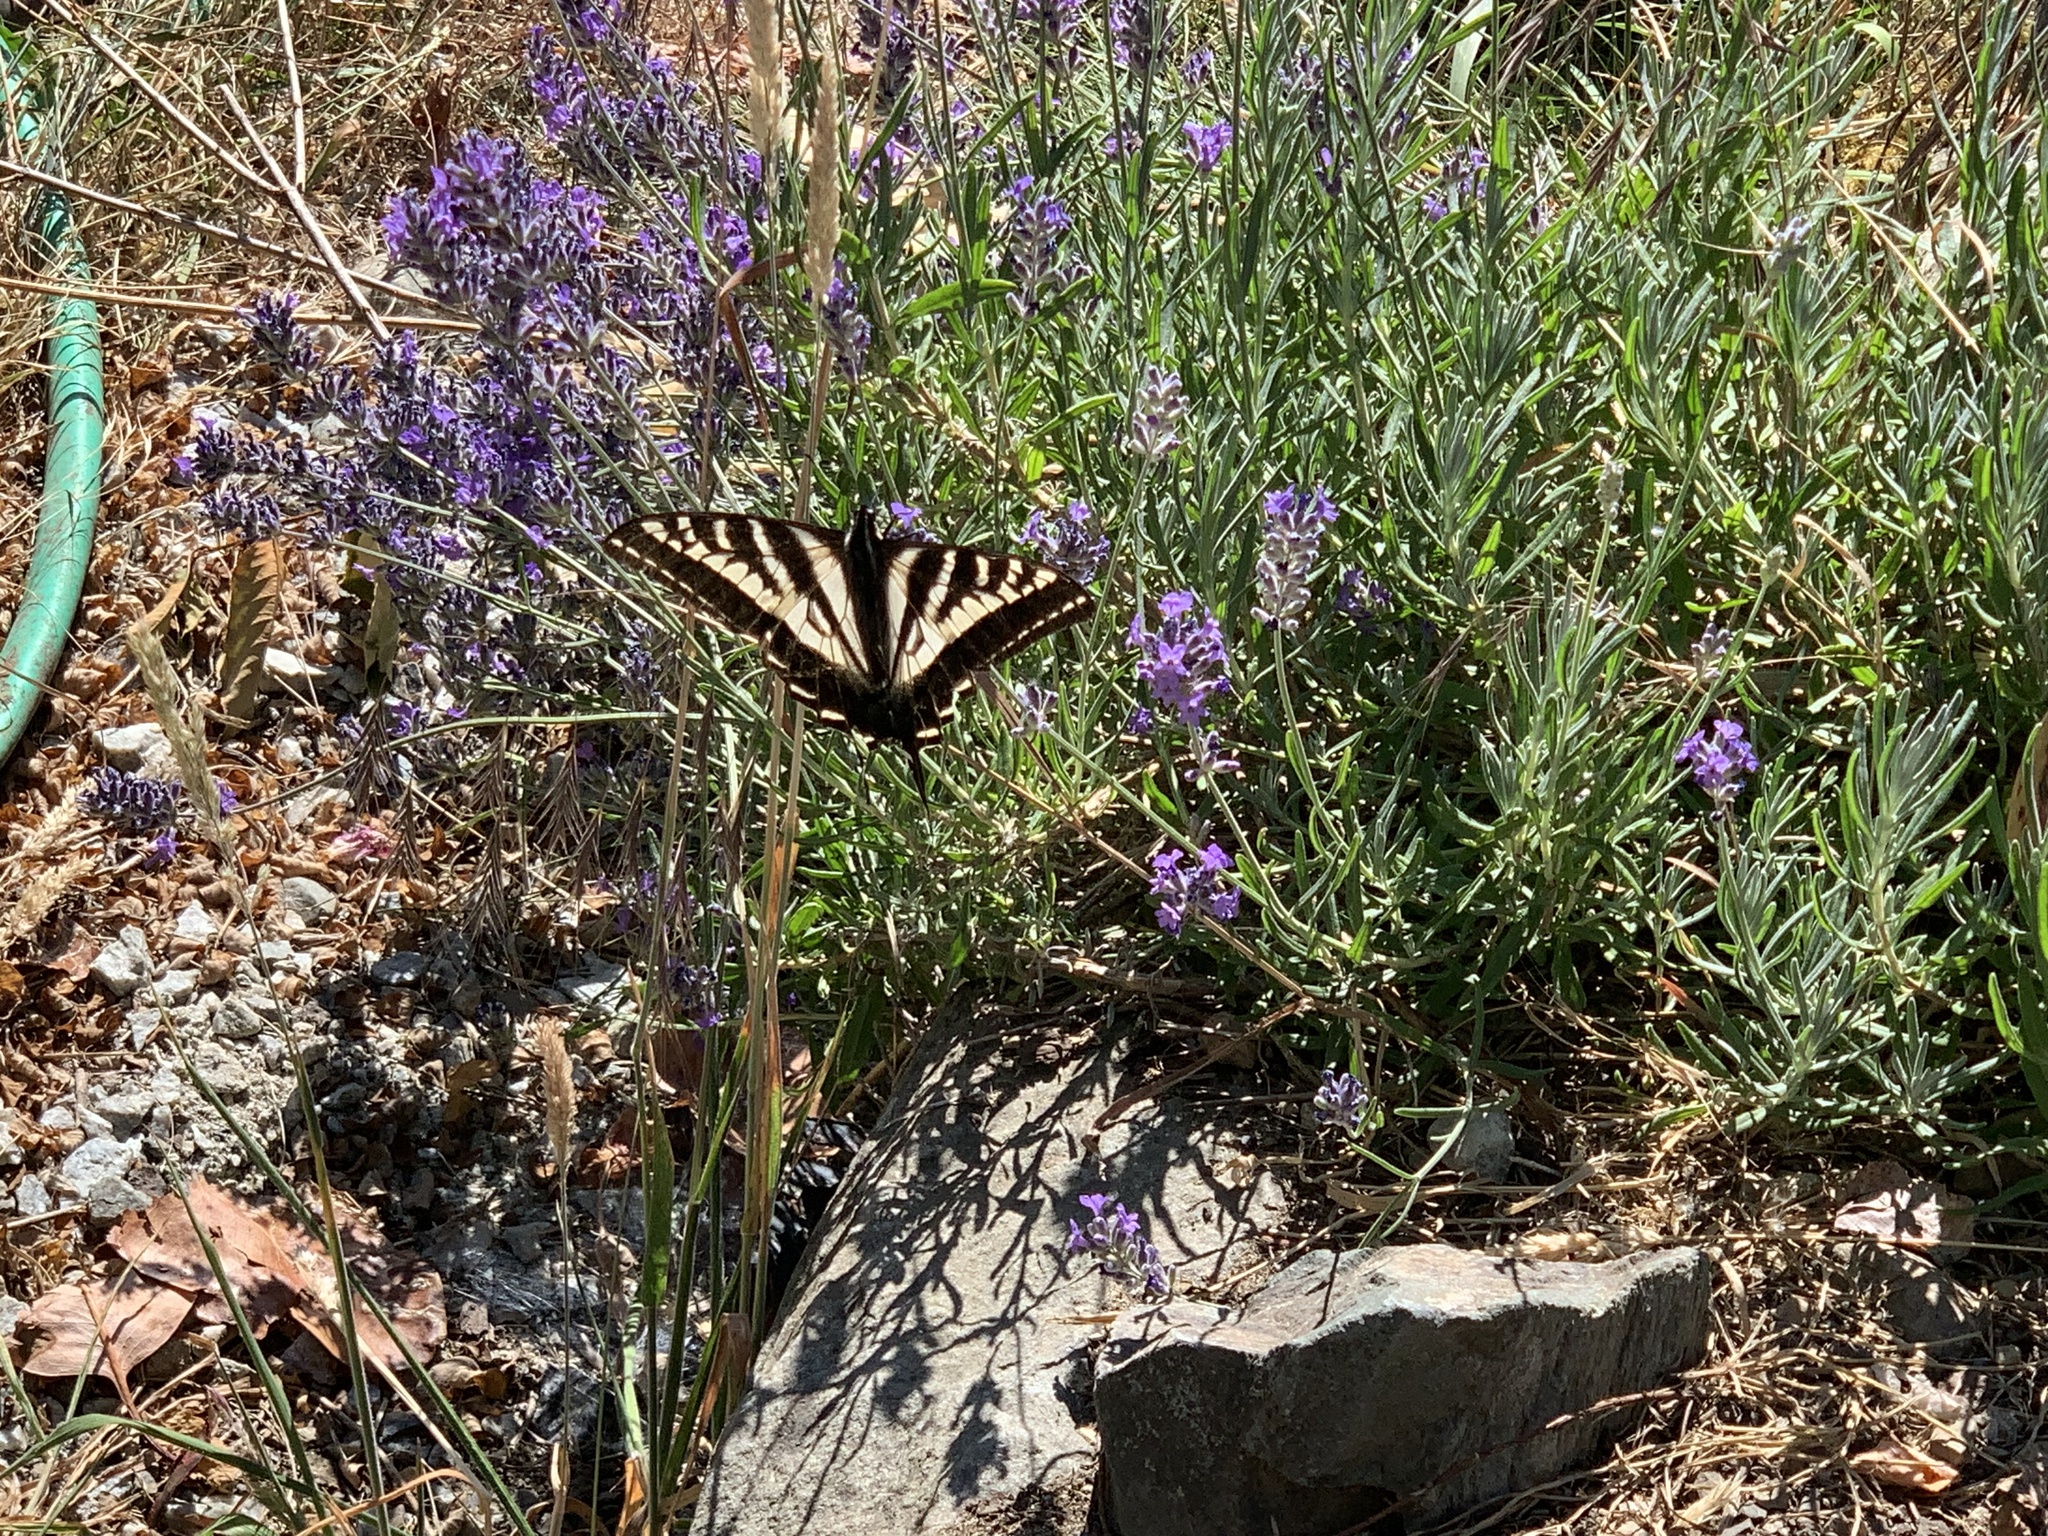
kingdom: Animalia
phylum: Arthropoda
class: Insecta
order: Lepidoptera
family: Papilionidae
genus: Papilio
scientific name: Papilio rutulus
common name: Western tiger swallowtail
